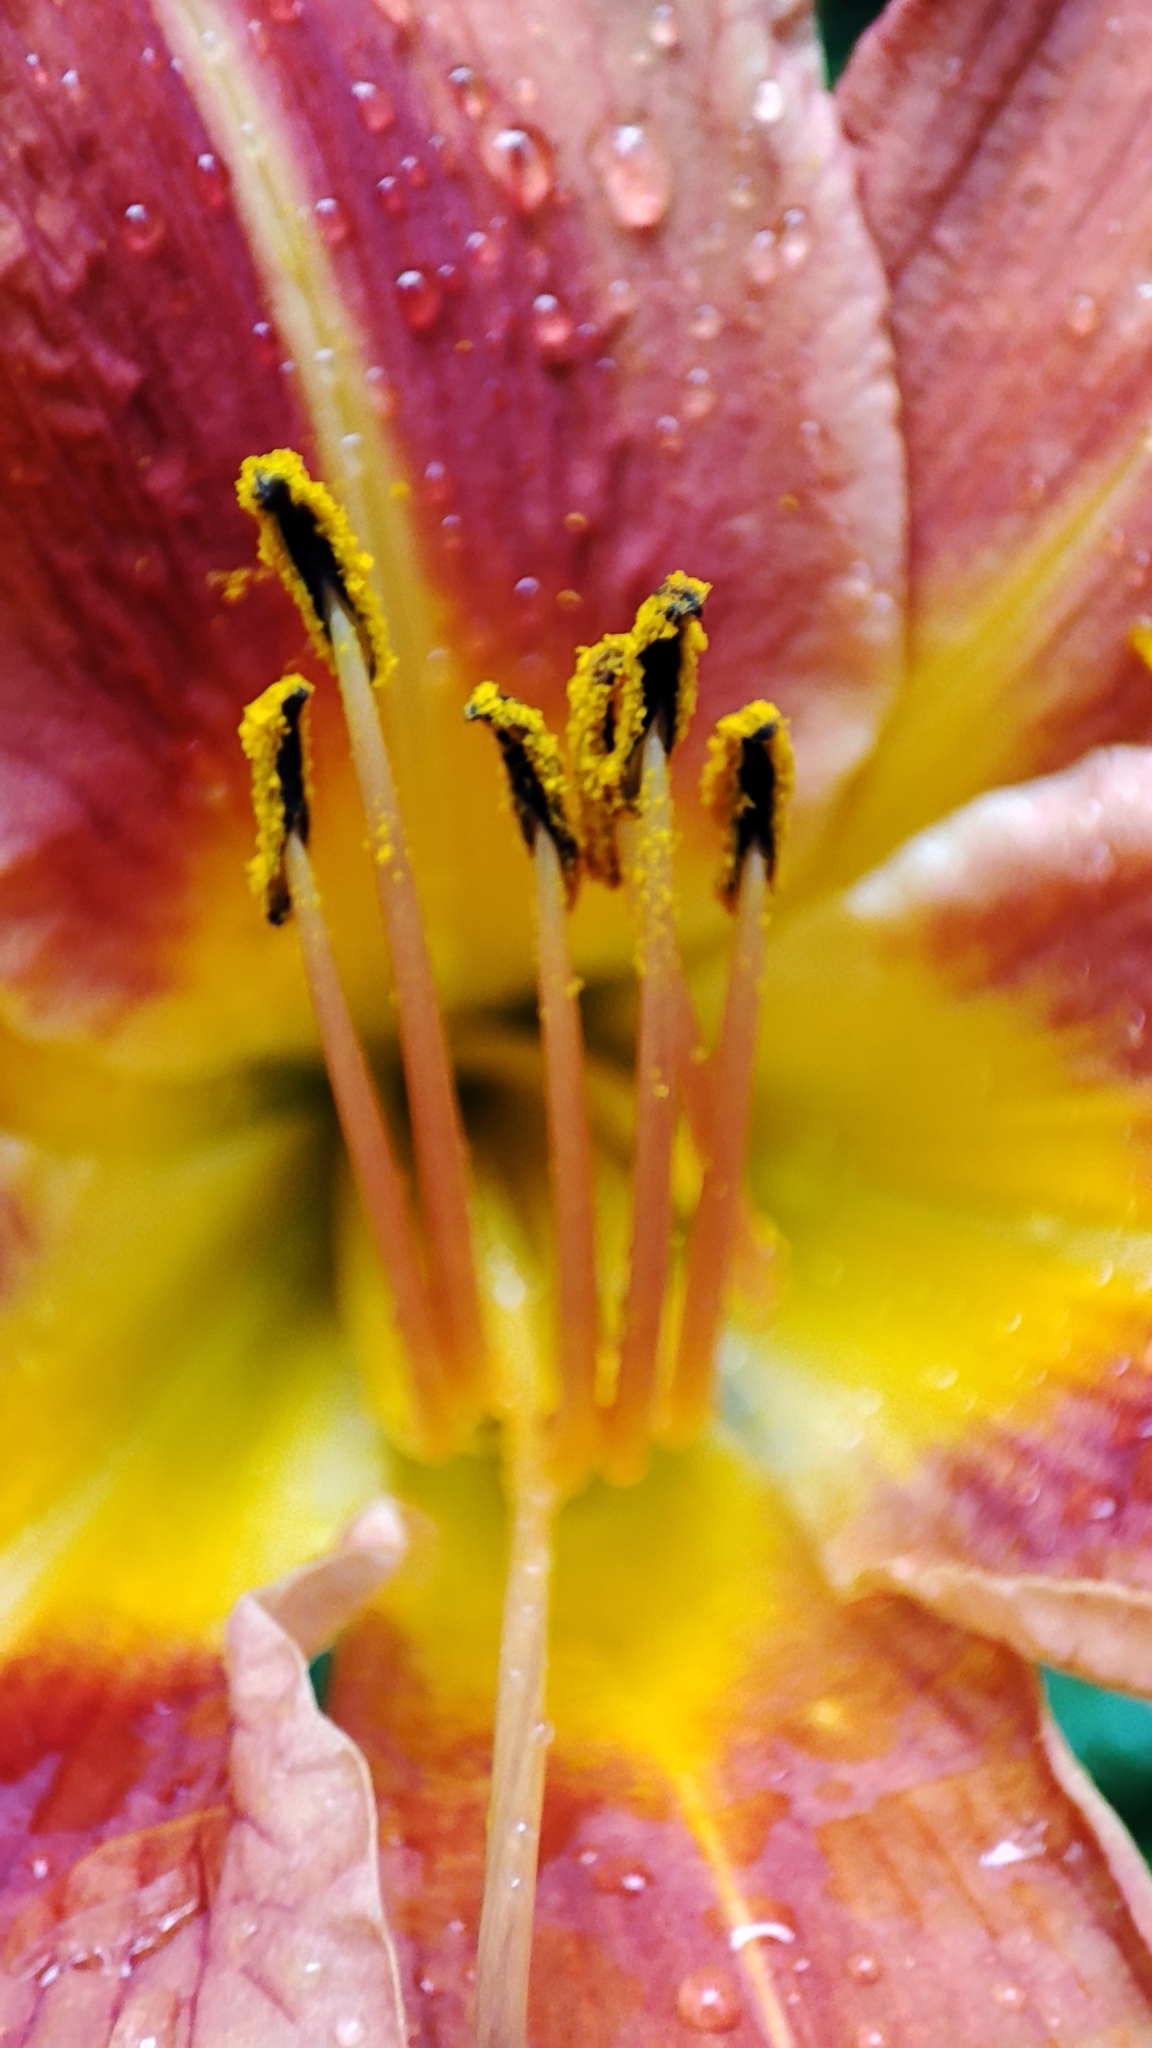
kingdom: Plantae
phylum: Tracheophyta
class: Liliopsida
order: Asparagales
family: Asphodelaceae
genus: Hemerocallis
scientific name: Hemerocallis fulva
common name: Orange day-lily
